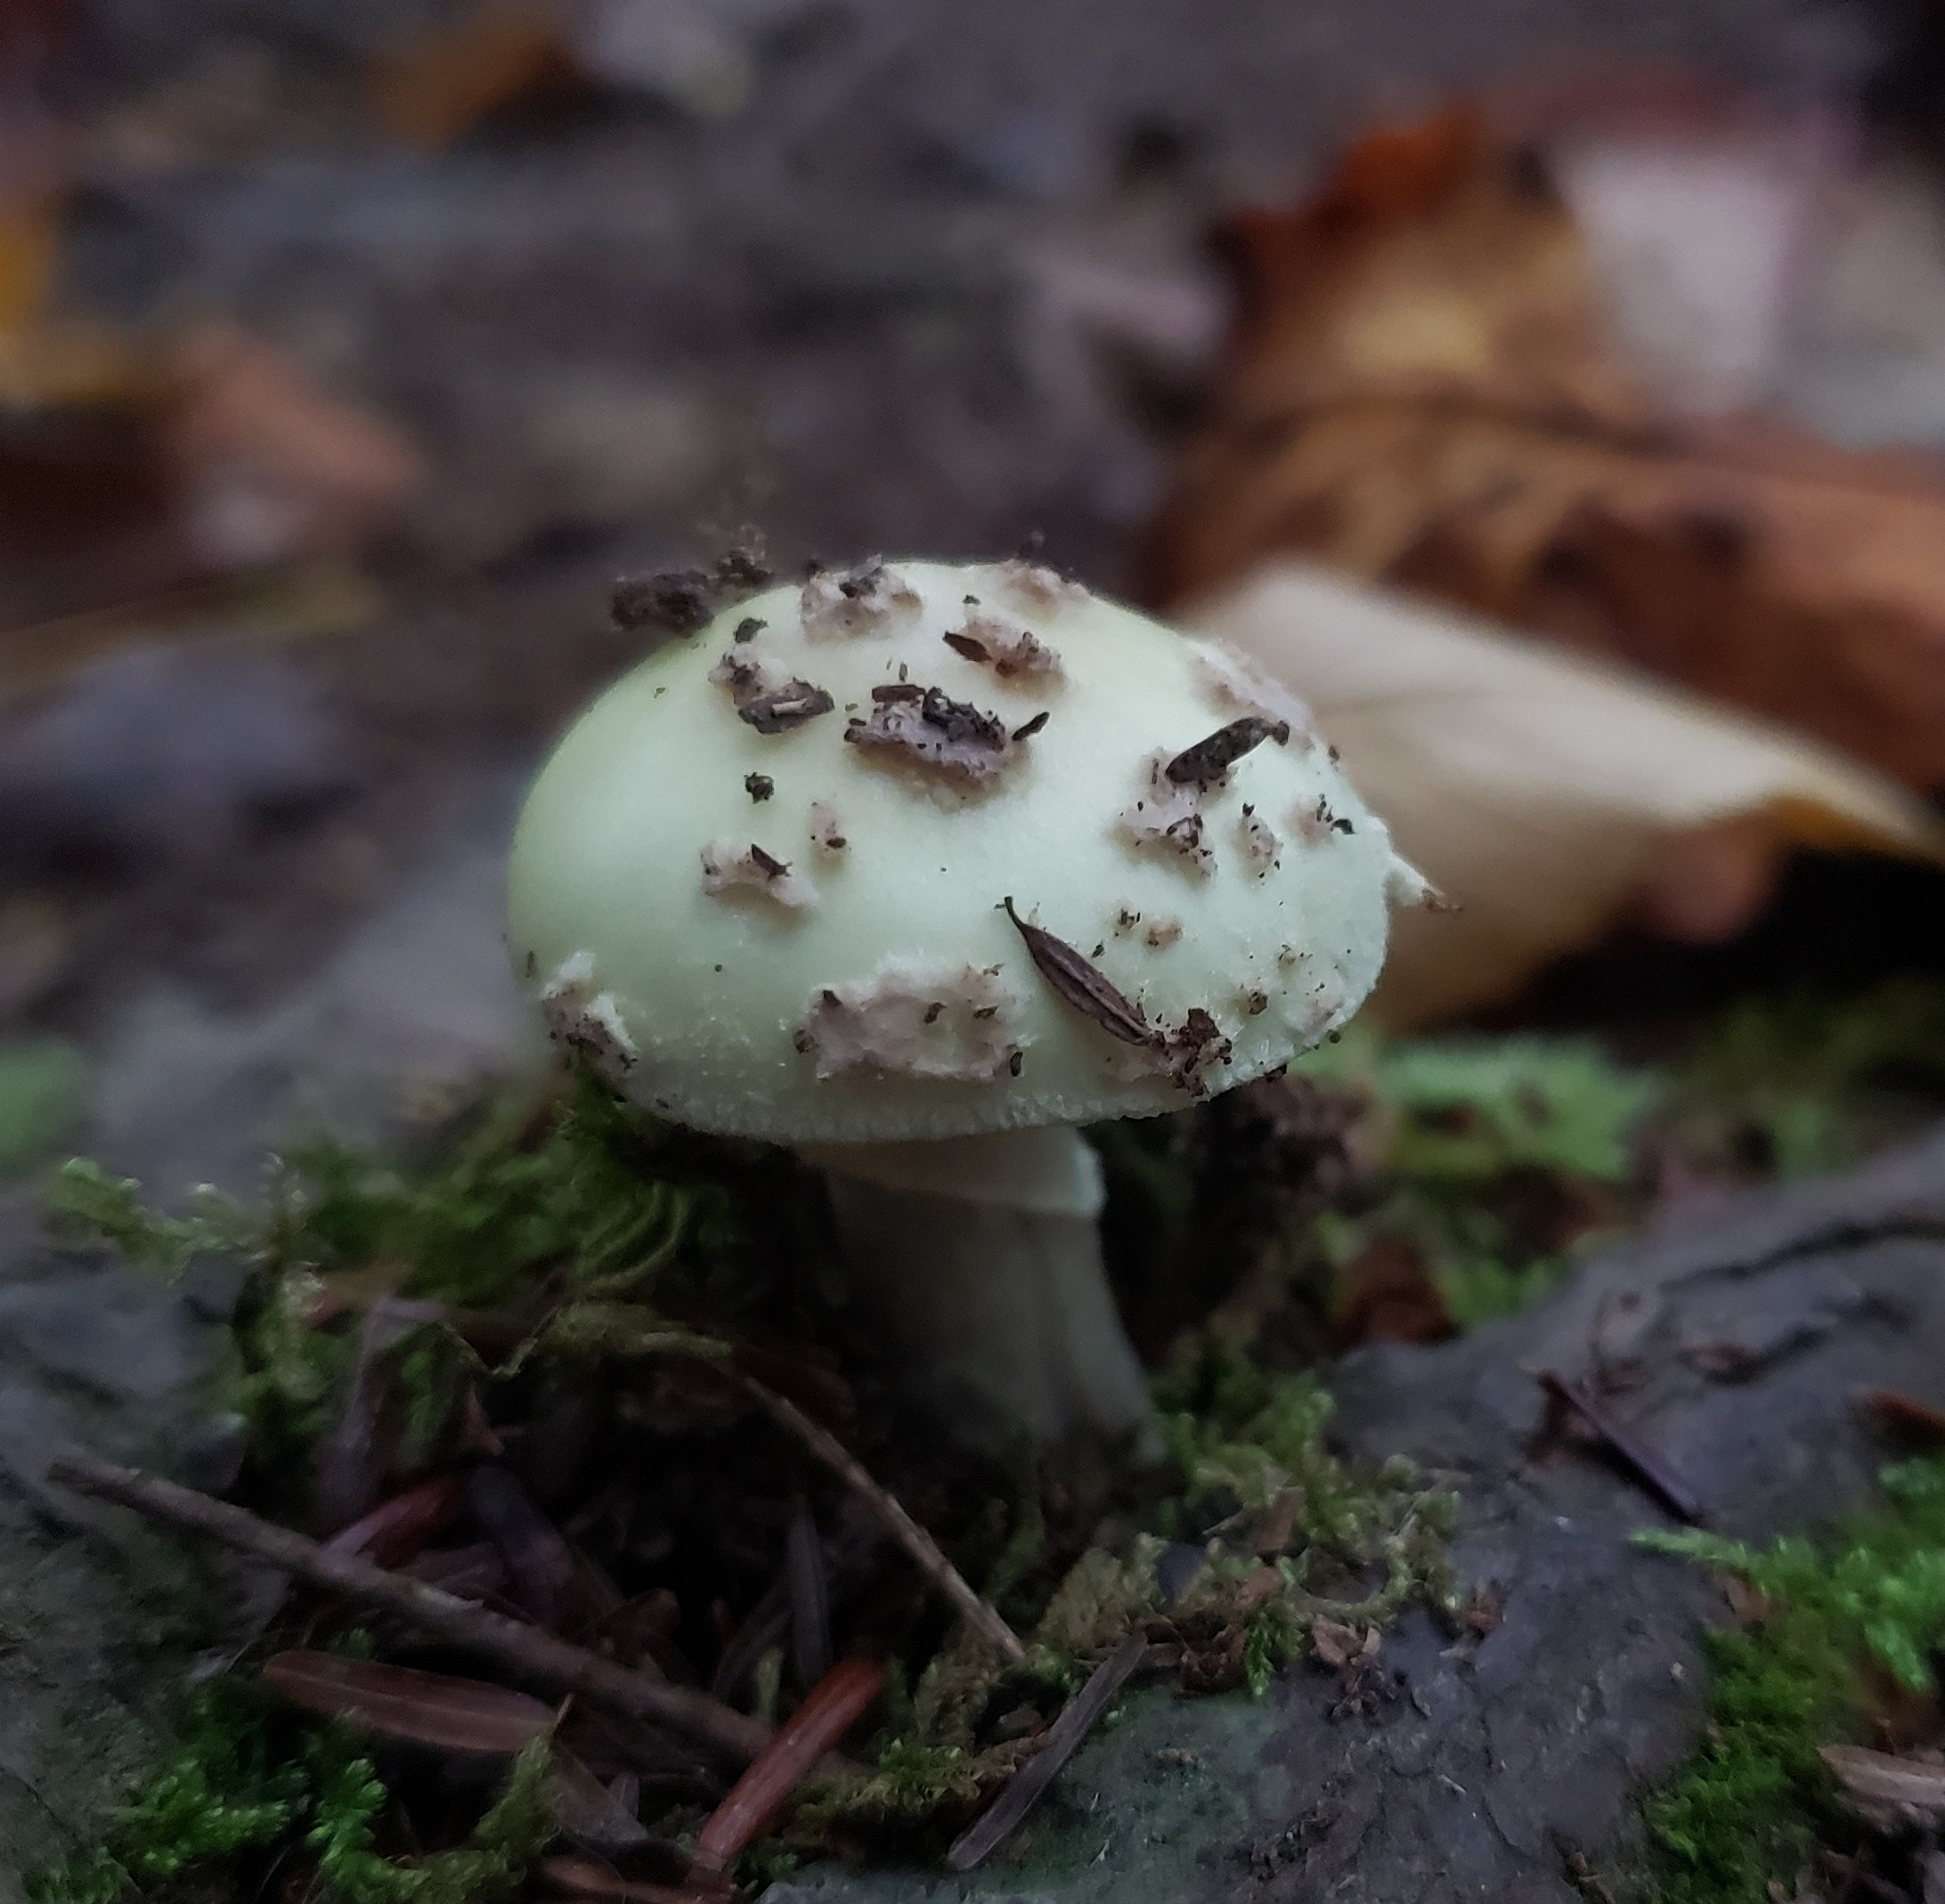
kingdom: Fungi
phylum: Basidiomycota
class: Agaricomycetes
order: Agaricales
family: Amanitaceae
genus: Amanita
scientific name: Amanita lavendula
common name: Coker's lavender staining amanita
